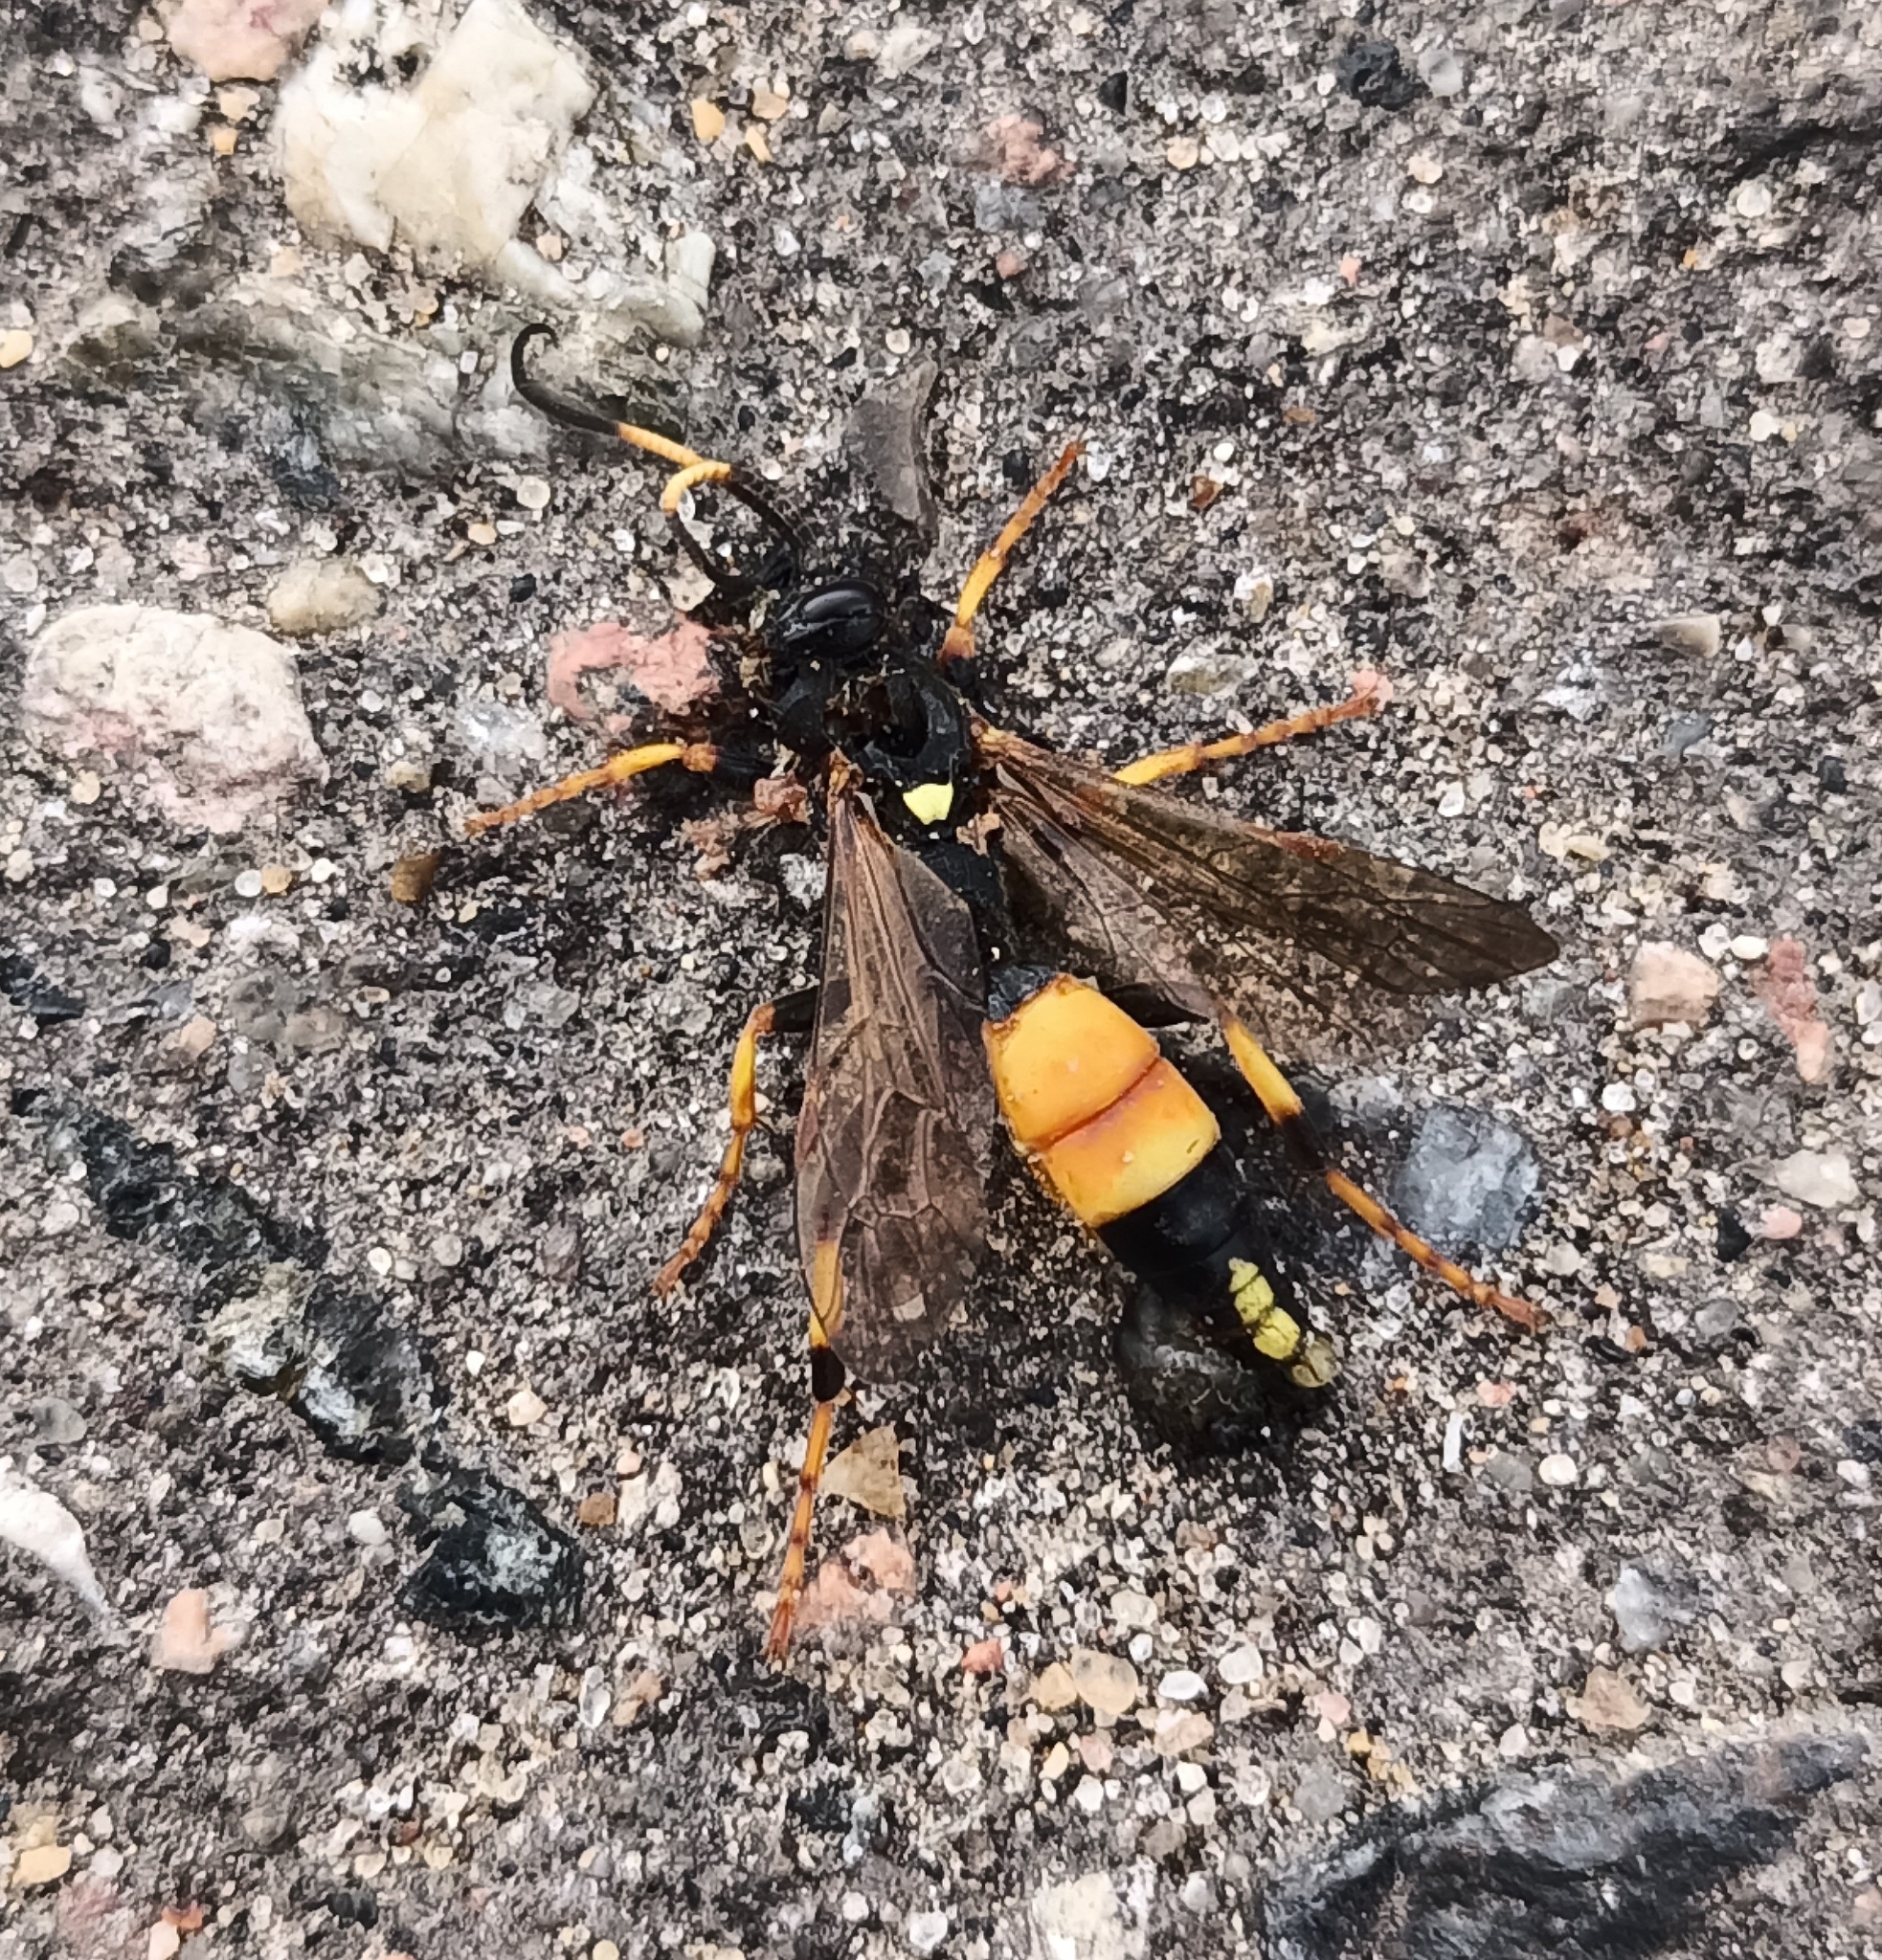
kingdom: Animalia
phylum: Arthropoda
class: Insecta
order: Hymenoptera
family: Ichneumonidae
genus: Ichneumon
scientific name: Ichneumon stramentor
